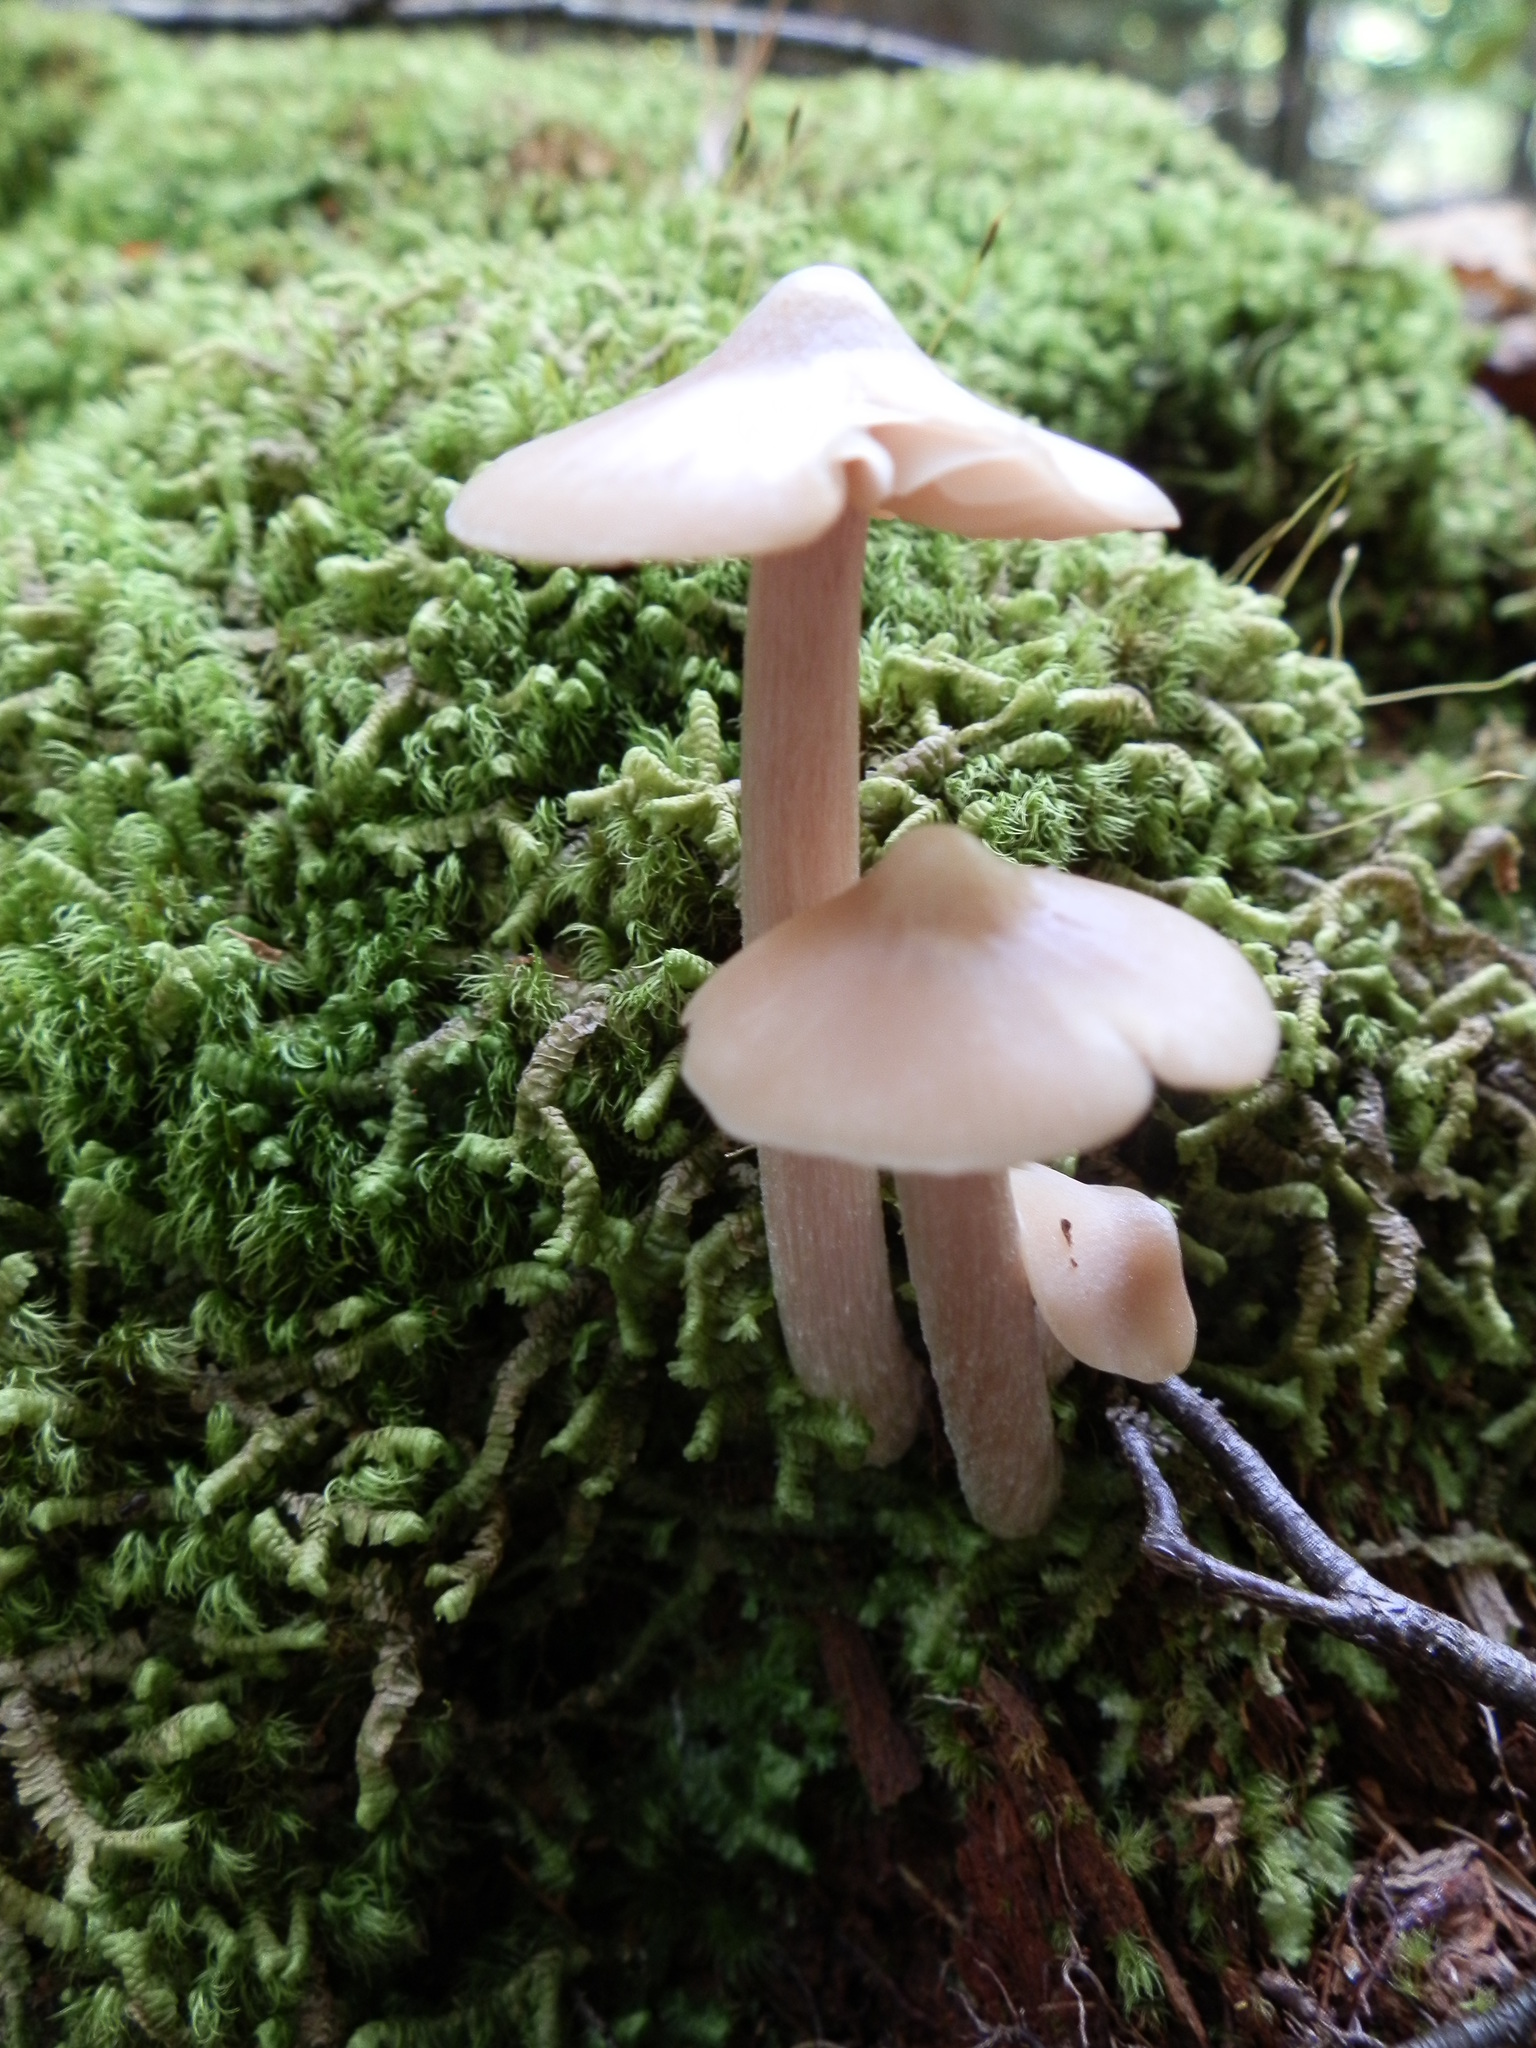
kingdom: Fungi
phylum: Basidiomycota
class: Agaricomycetes
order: Agaricales
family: Entolomataceae
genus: Entoloma
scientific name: Entoloma strictius
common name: Straight-stalked entoloma
